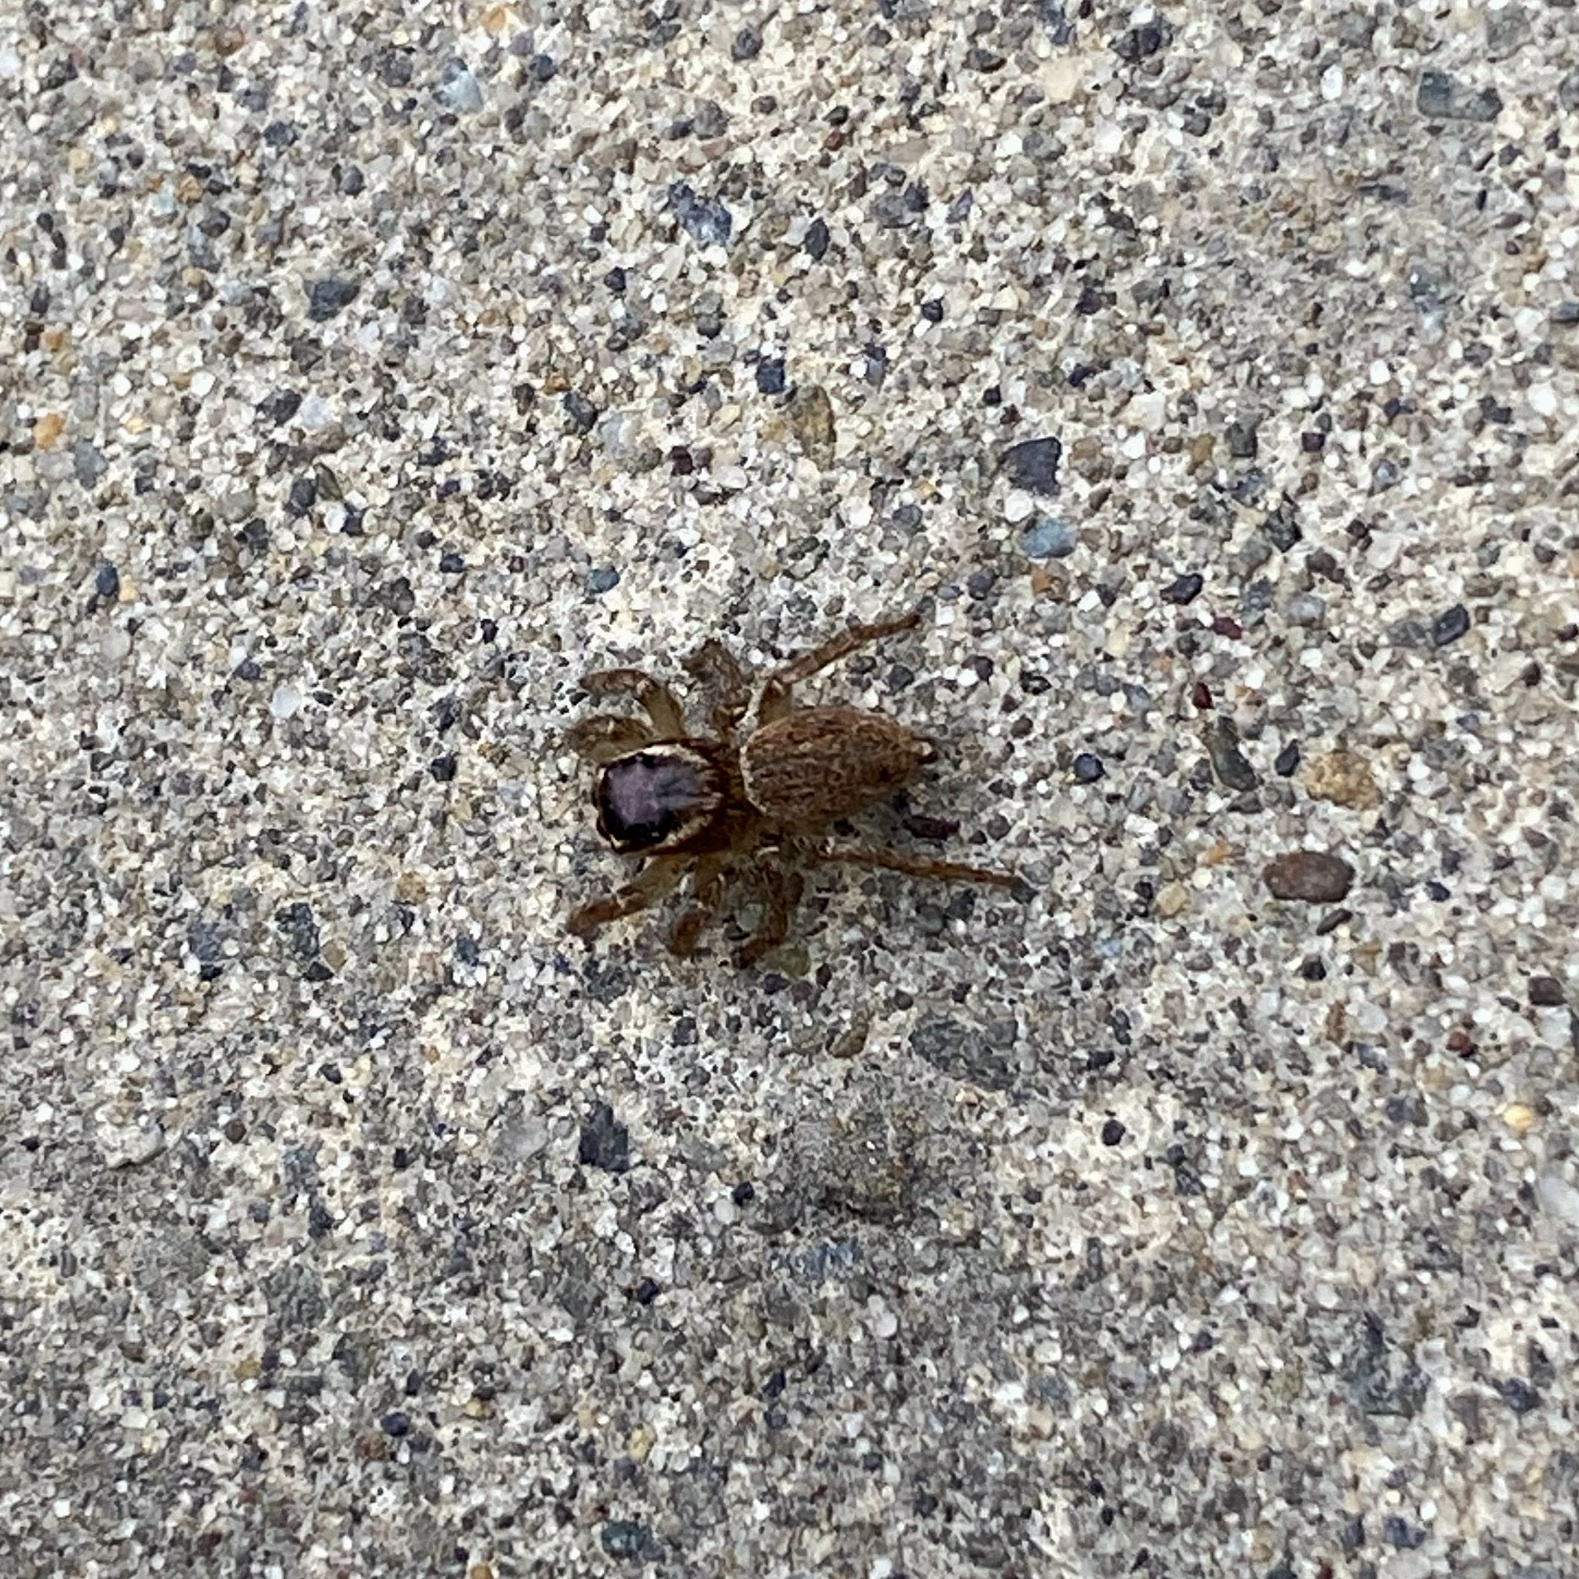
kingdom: Animalia
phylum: Arthropoda
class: Arachnida
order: Araneae
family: Salticidae
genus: Maratus
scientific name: Maratus griseus
